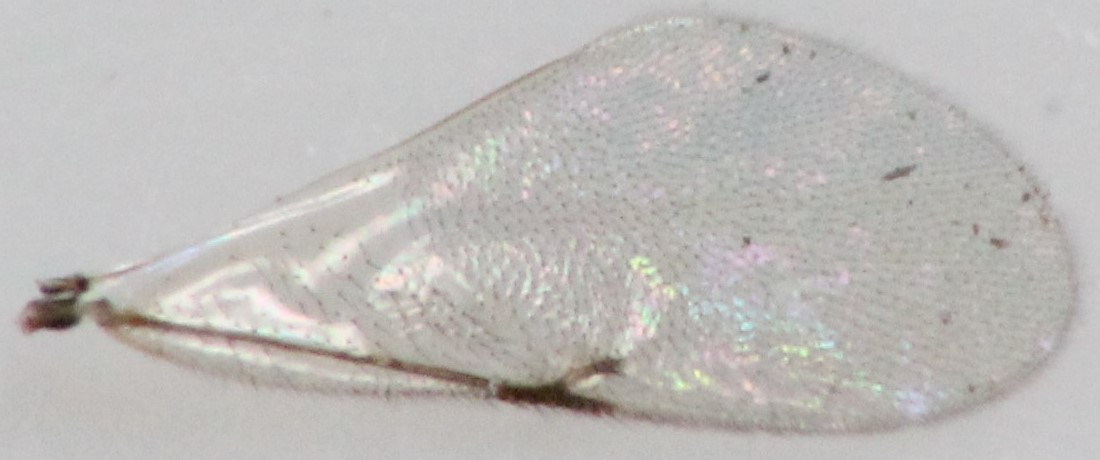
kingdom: Animalia
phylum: Arthropoda
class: Insecta
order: Hymenoptera
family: Encyrtidae
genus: Tachinaephagus
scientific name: Tachinaephagus zealandicus
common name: Parasitoid wasp
